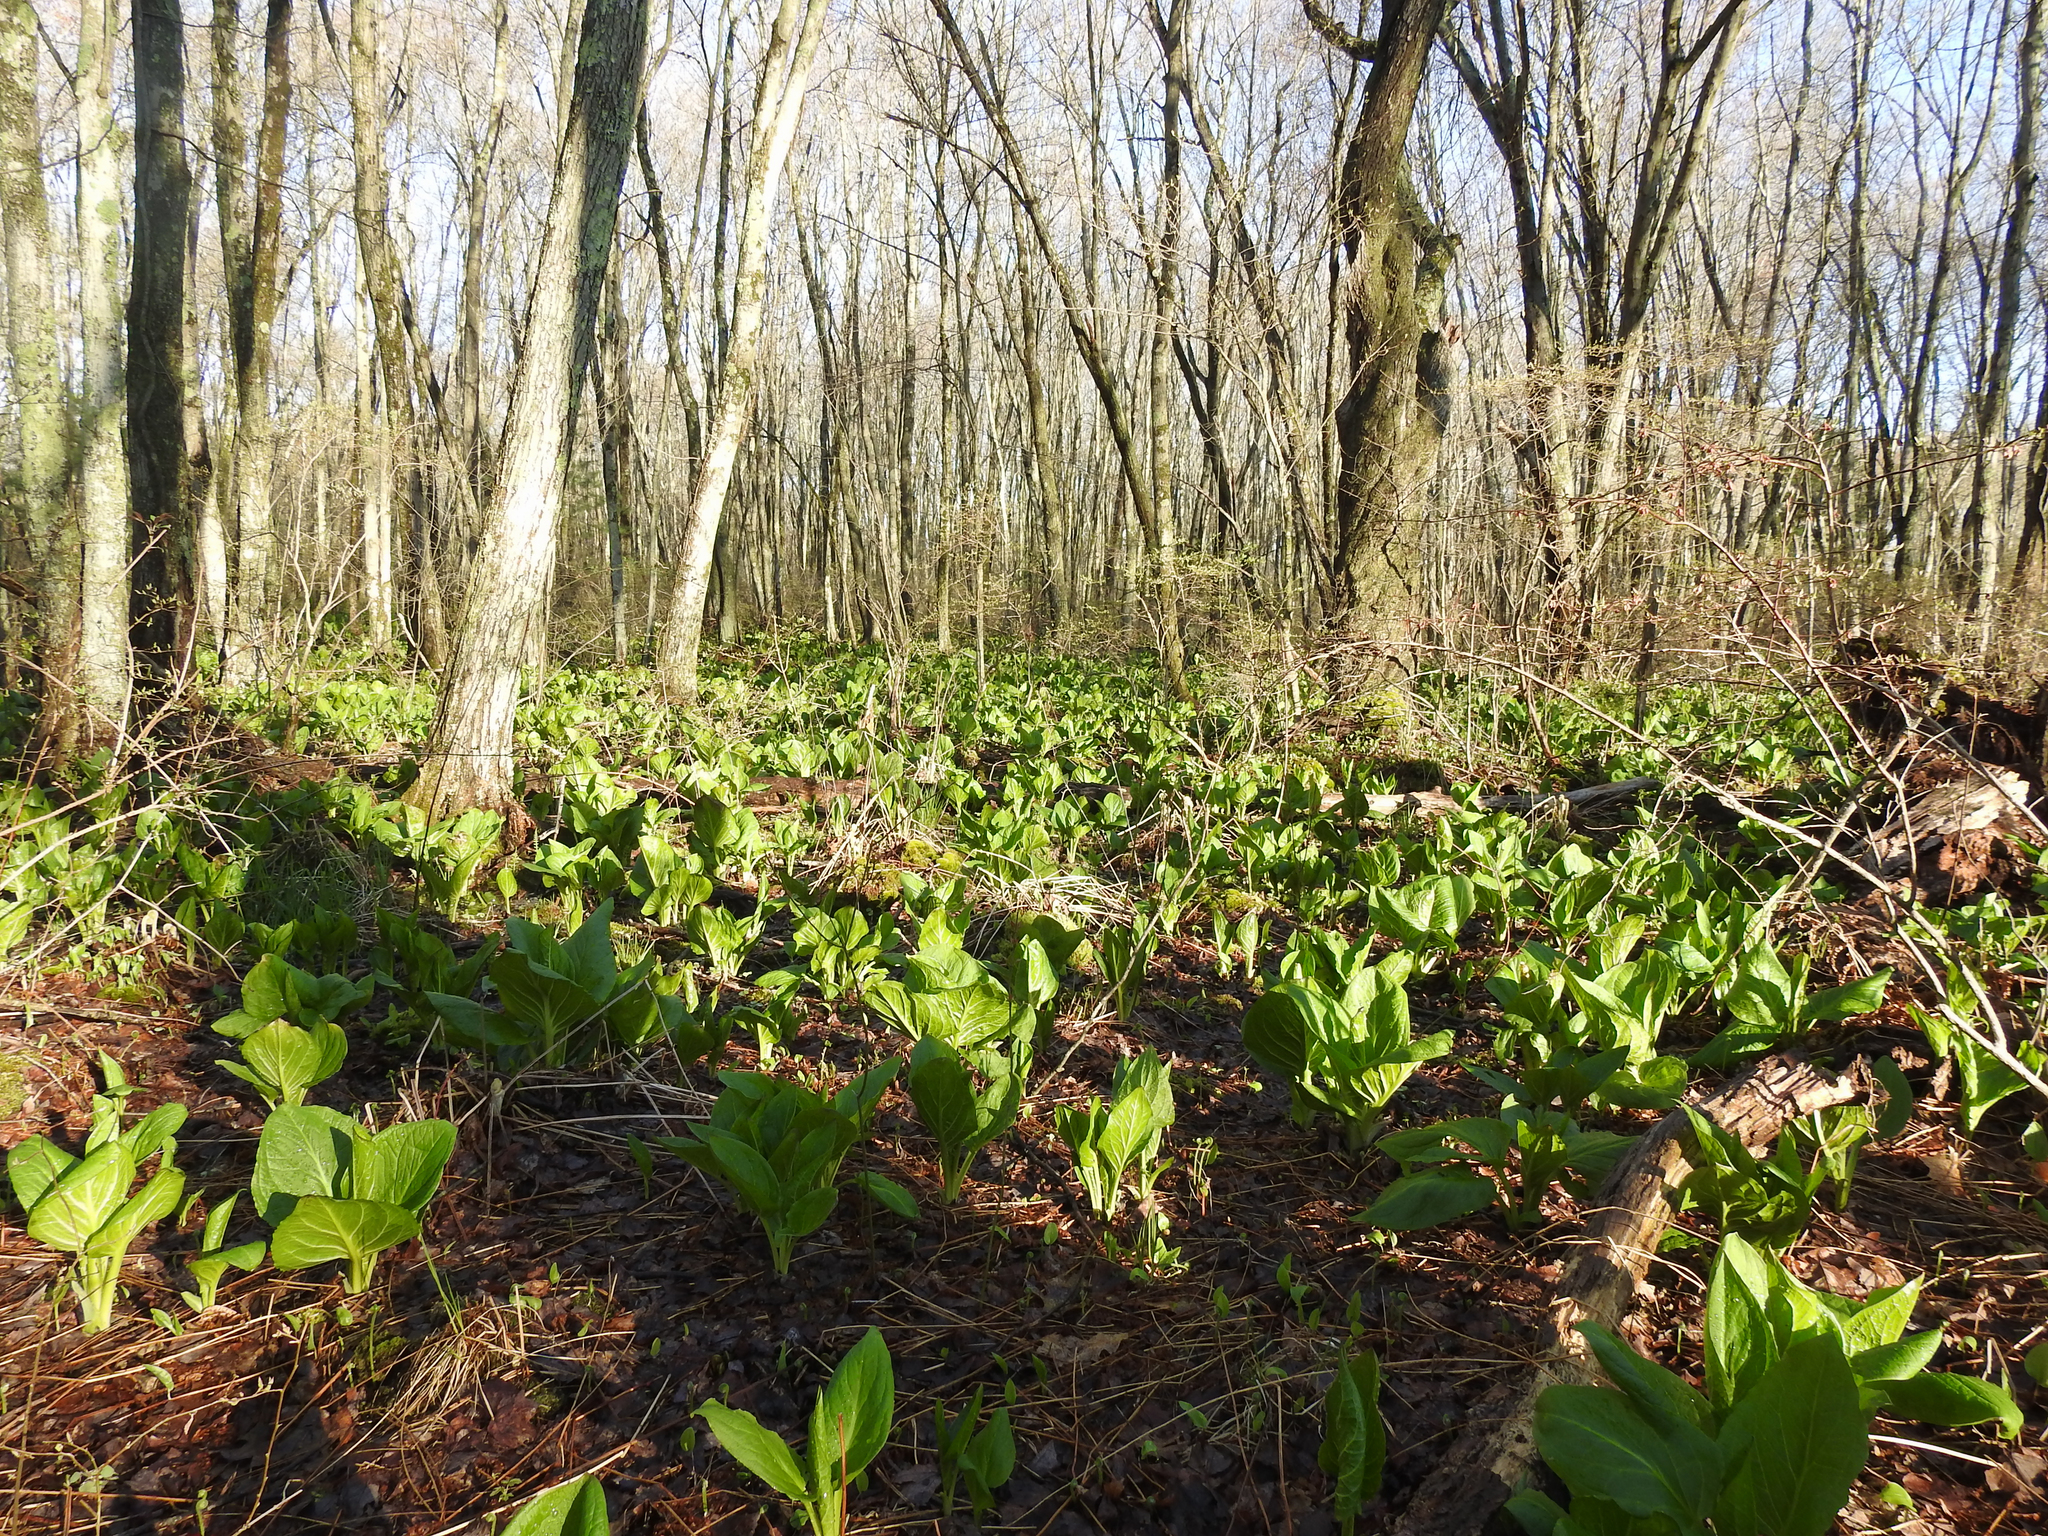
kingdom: Plantae
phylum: Tracheophyta
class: Liliopsida
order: Alismatales
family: Araceae
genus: Symplocarpus
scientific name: Symplocarpus foetidus
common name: Eastern skunk cabbage
